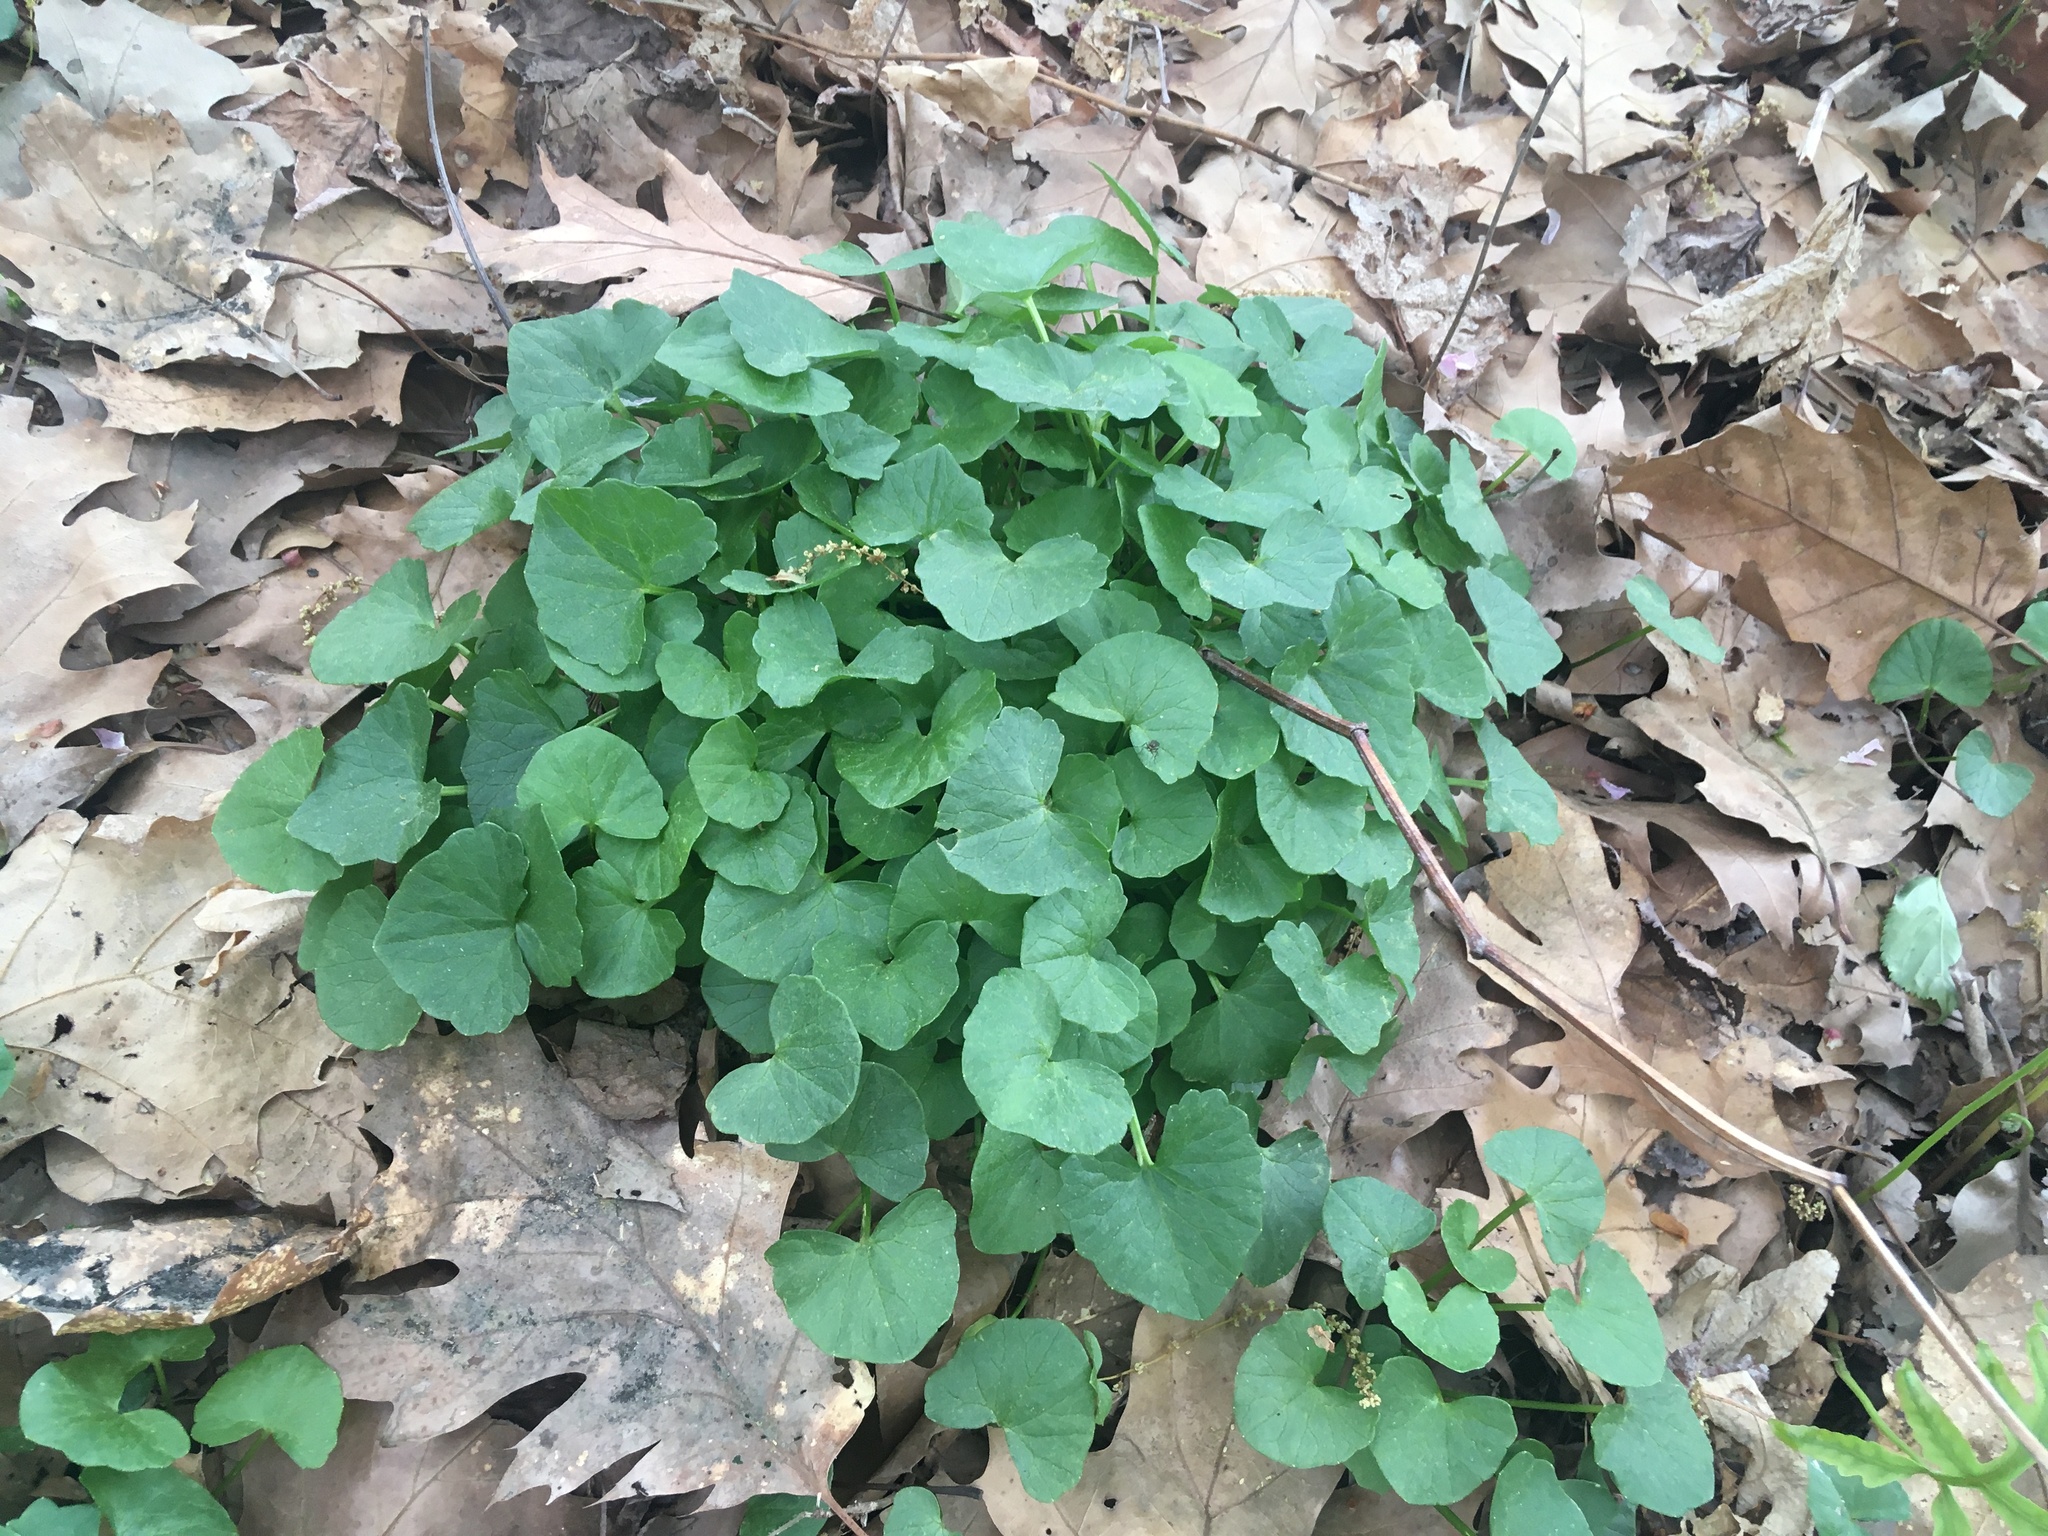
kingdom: Plantae
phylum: Tracheophyta
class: Magnoliopsida
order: Ranunculales
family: Ranunculaceae
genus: Ficaria
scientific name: Ficaria verna
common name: Lesser celandine
